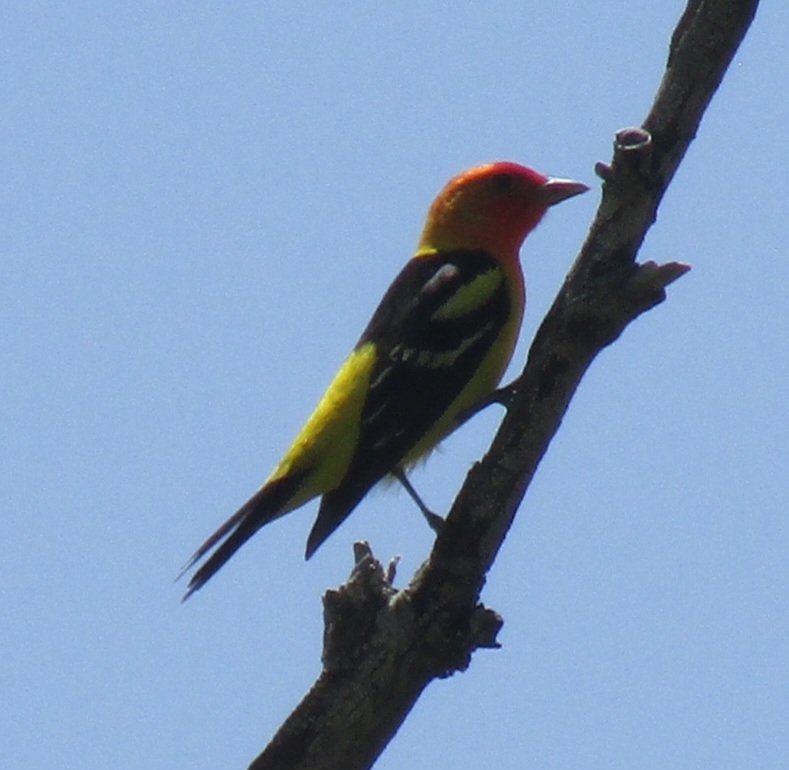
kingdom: Animalia
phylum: Chordata
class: Aves
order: Passeriformes
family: Cardinalidae
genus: Piranga
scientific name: Piranga ludoviciana
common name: Western tanager
